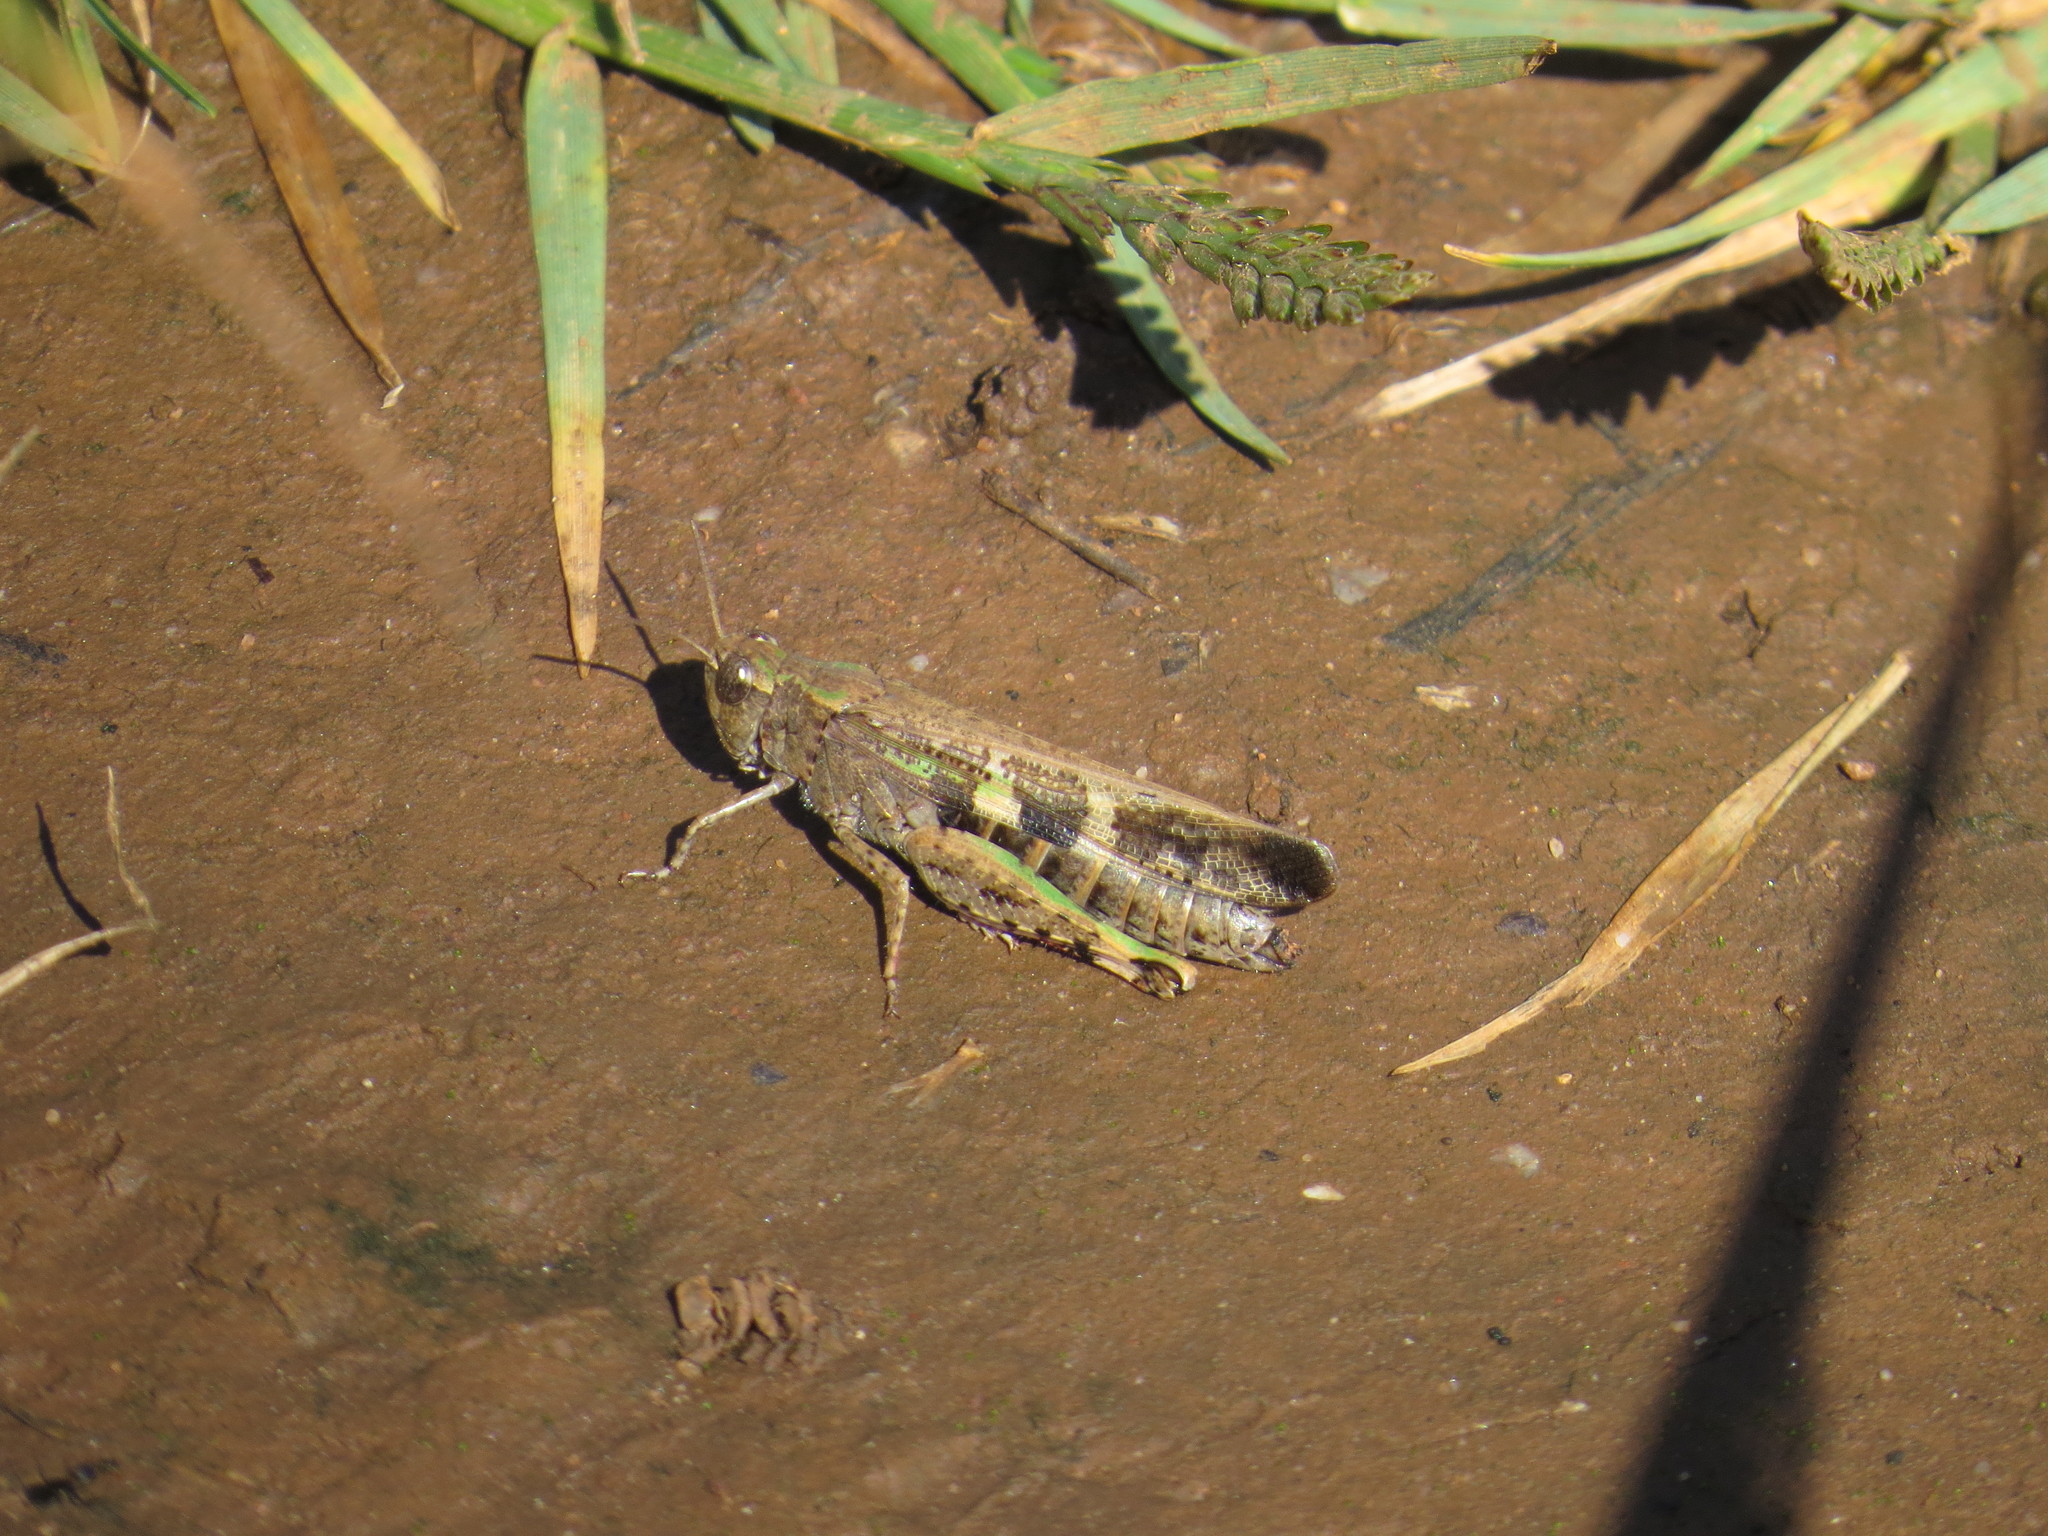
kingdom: Animalia
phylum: Arthropoda
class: Insecta
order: Orthoptera
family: Acrididae
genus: Aiolopus
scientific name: Aiolopus strepens
